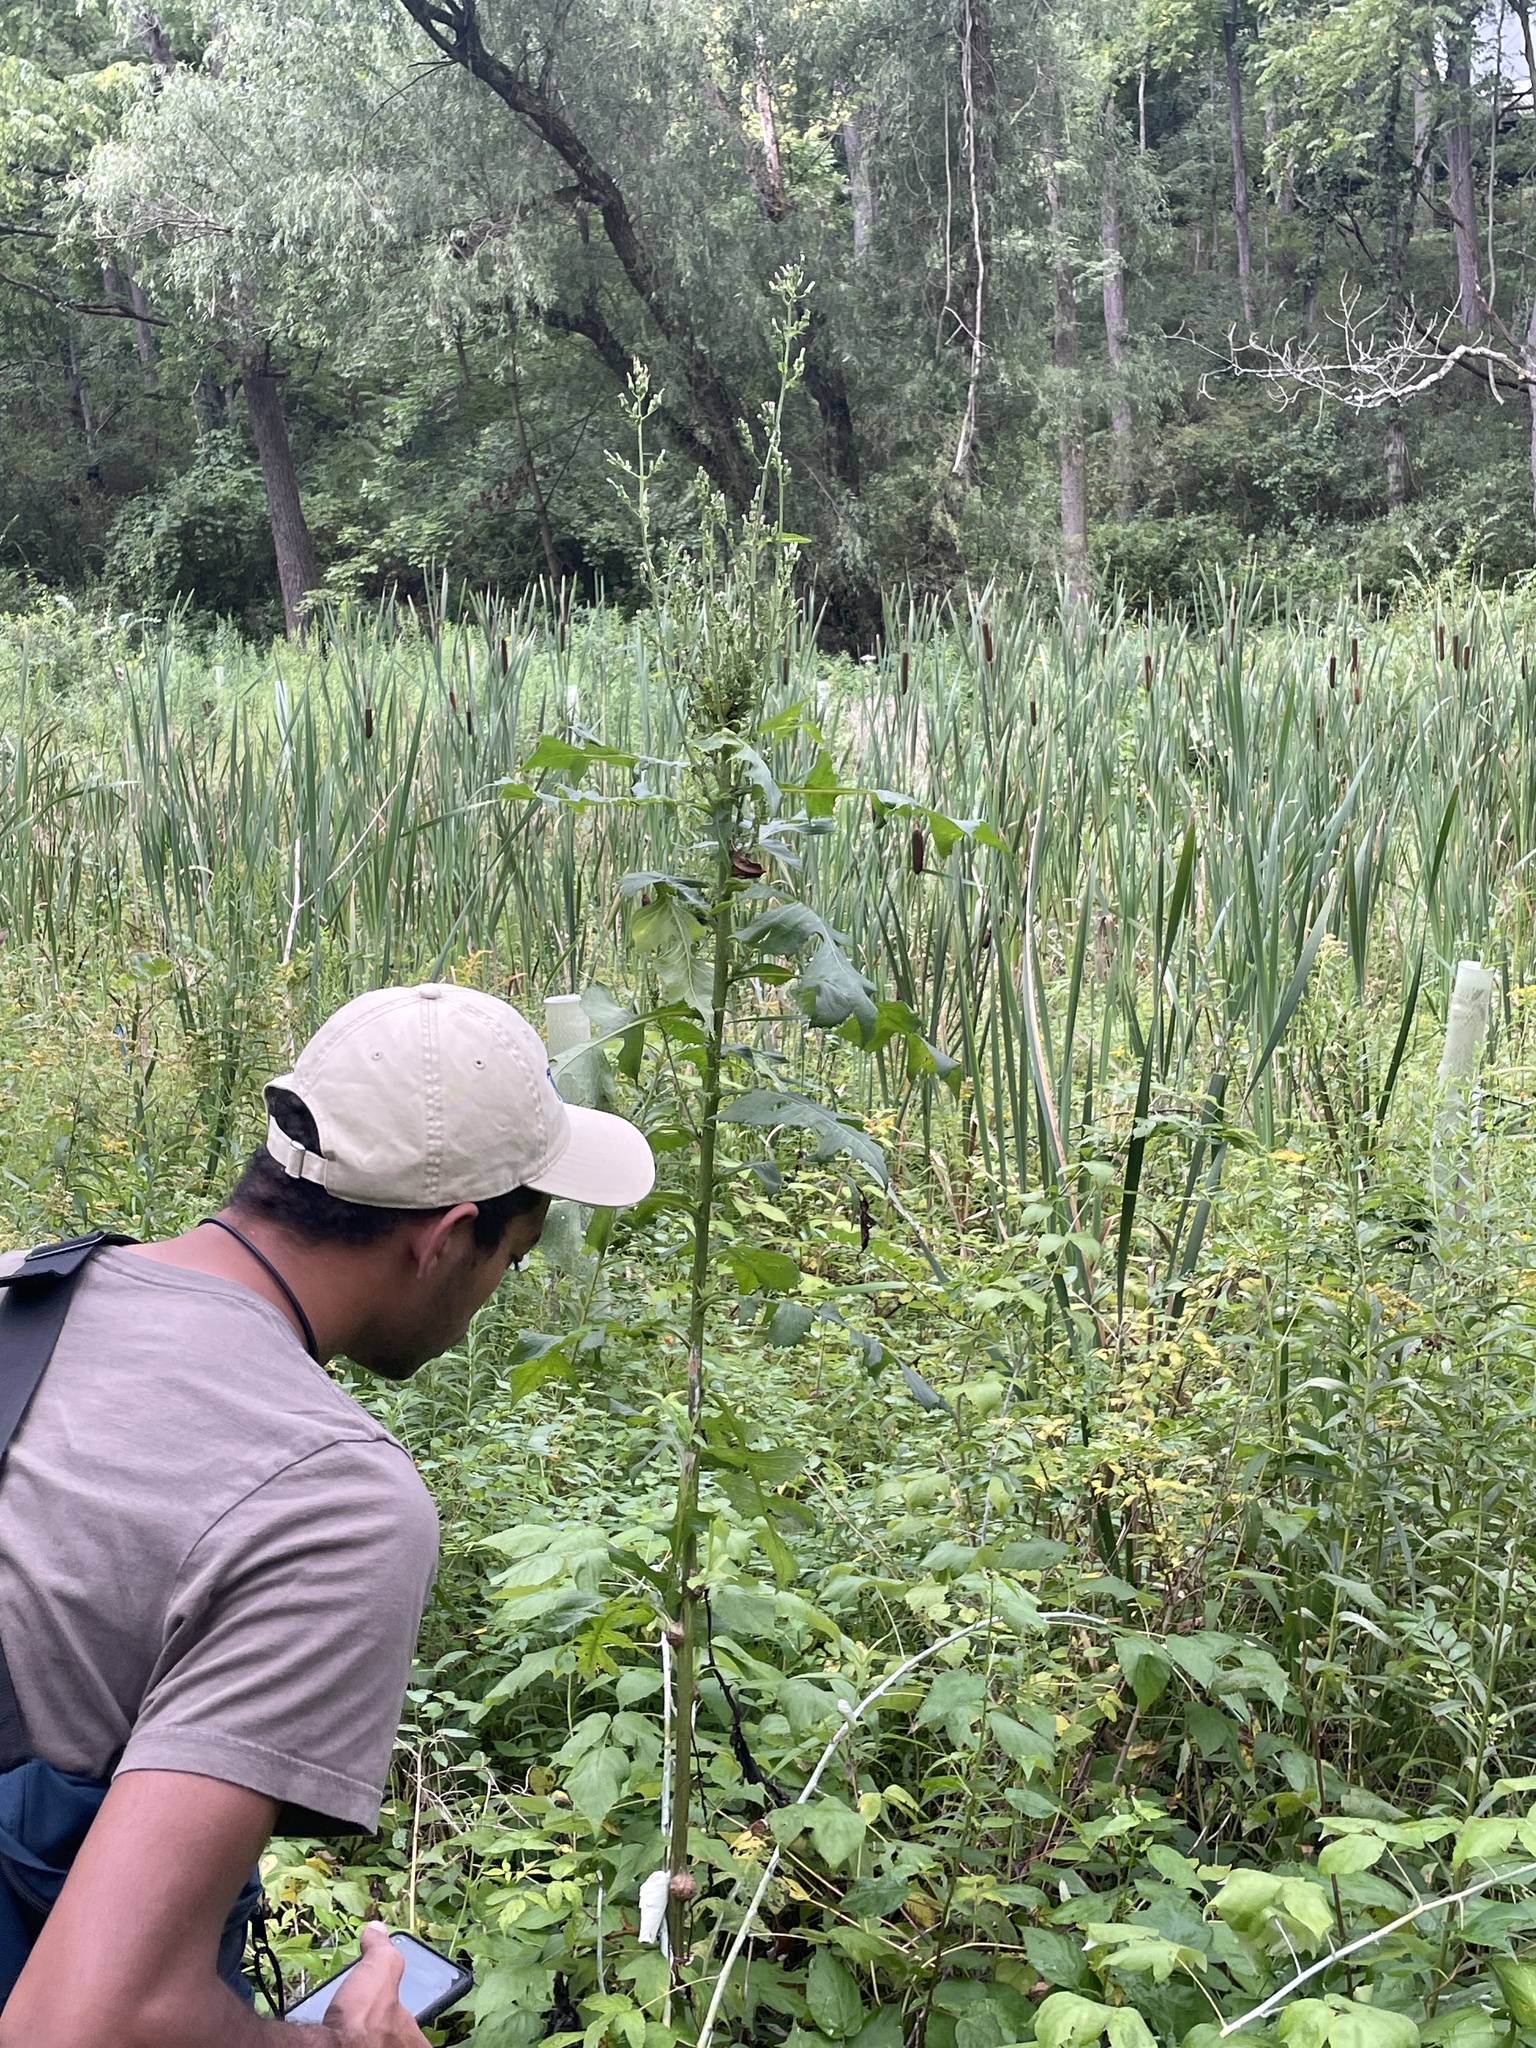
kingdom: Plantae
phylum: Tracheophyta
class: Magnoliopsida
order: Asterales
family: Asteraceae
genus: Lactuca
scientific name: Lactuca biennis
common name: Blue wood lettuce
